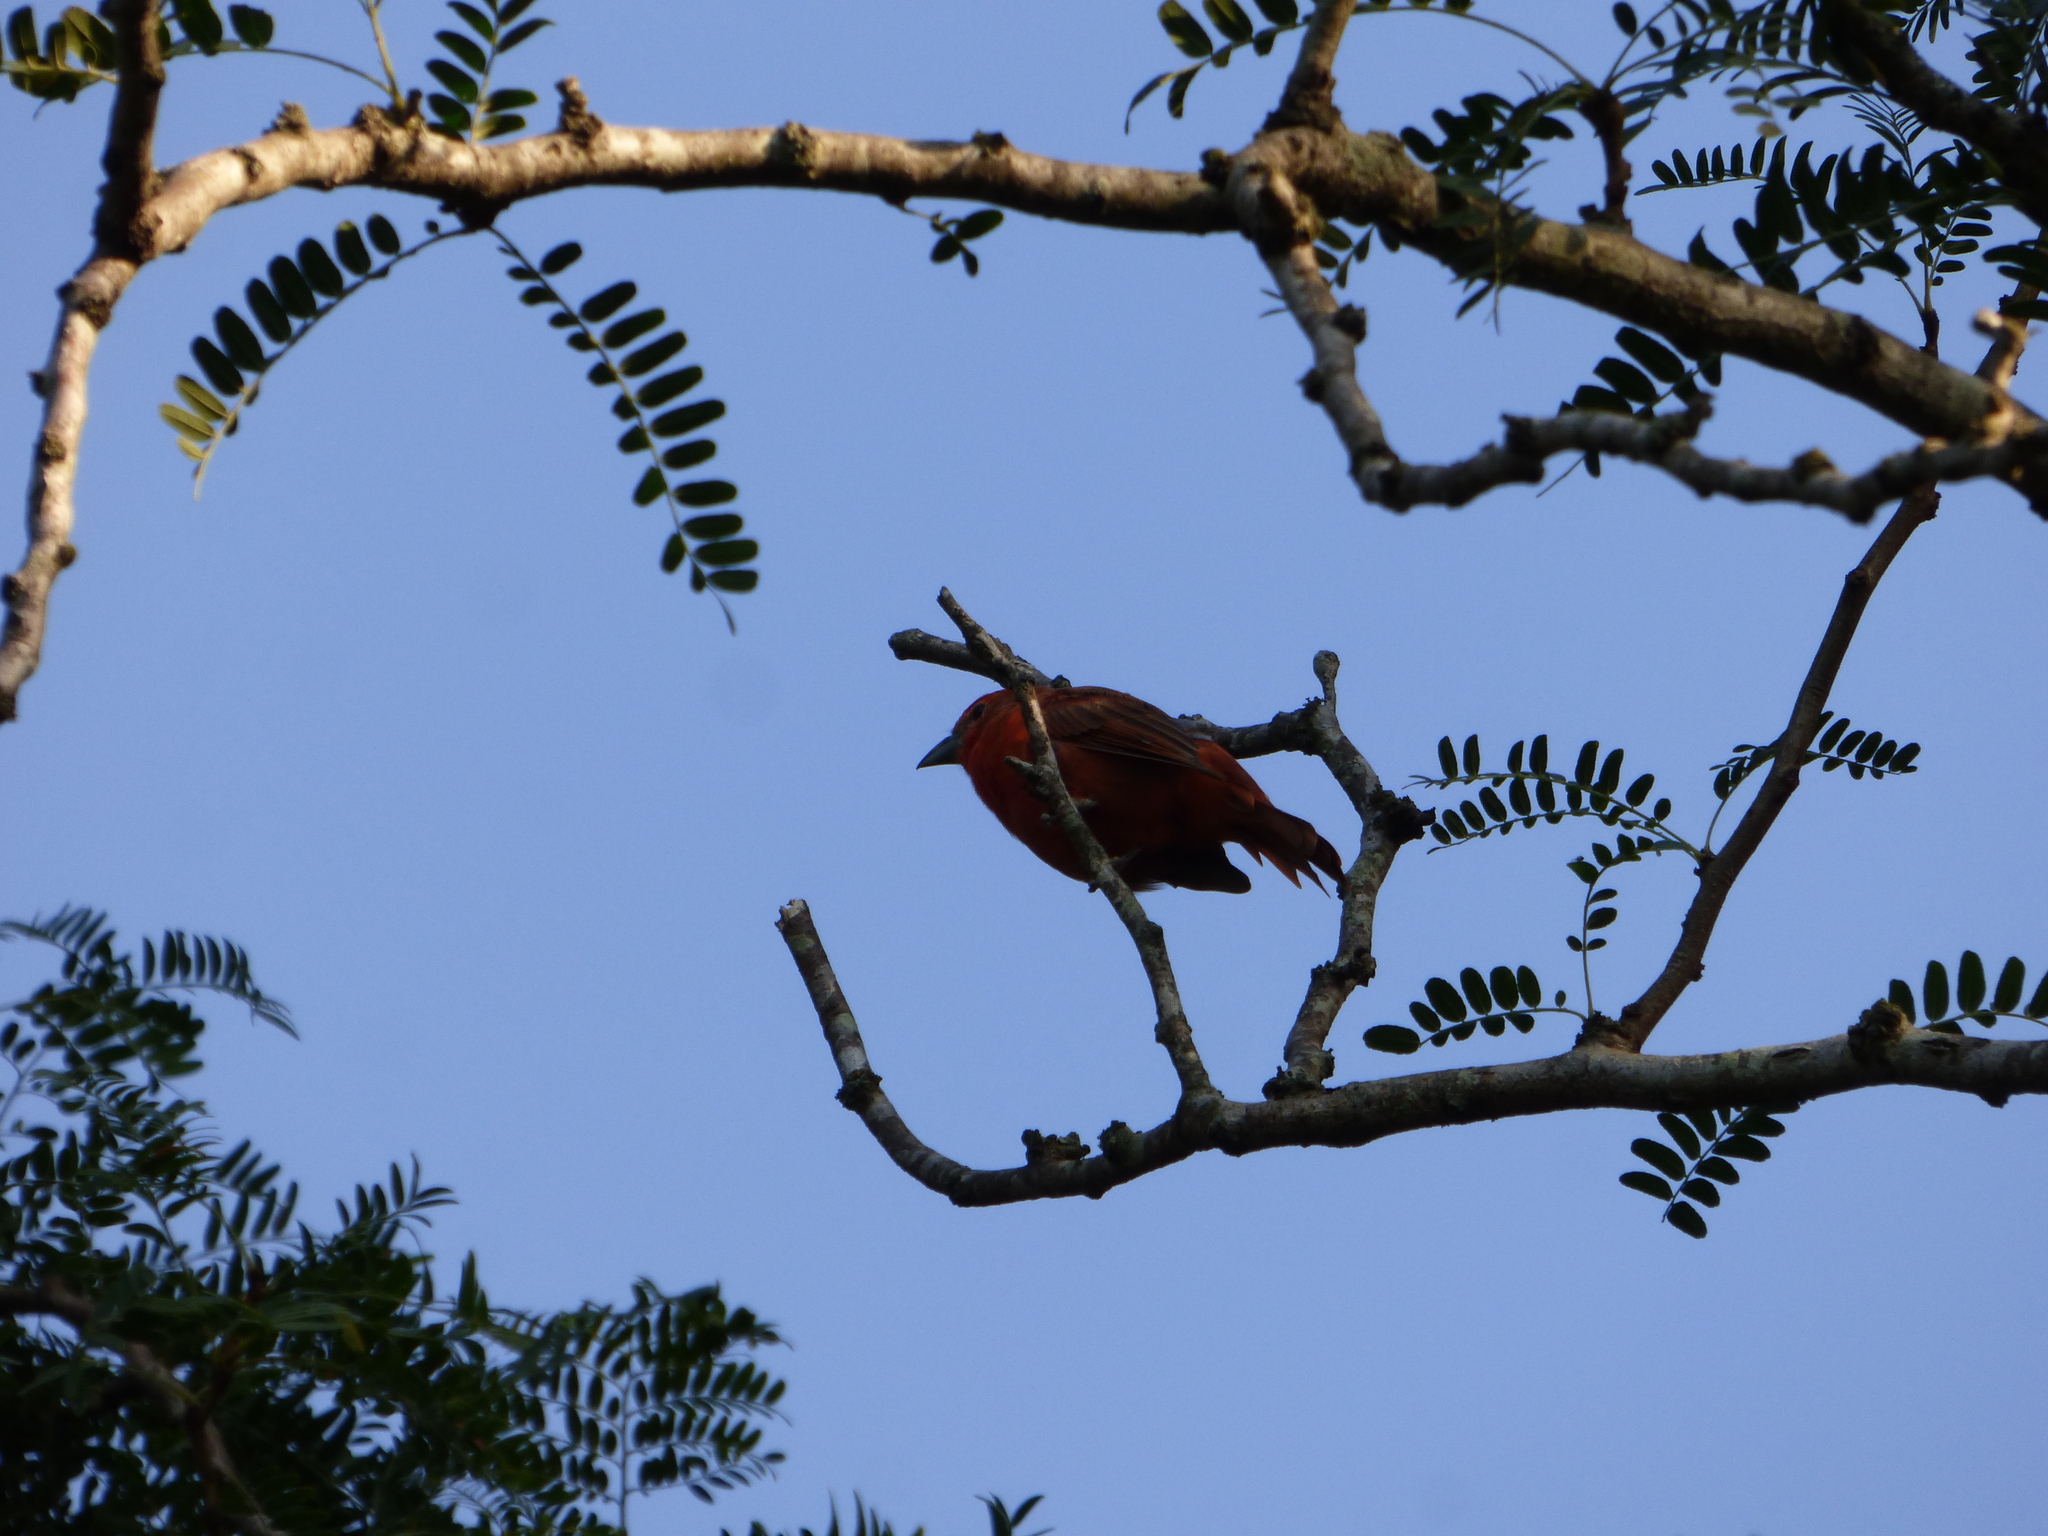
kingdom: Animalia
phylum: Chordata
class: Aves
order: Passeriformes
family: Cardinalidae
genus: Piranga
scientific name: Piranga flava
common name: Red tanager
